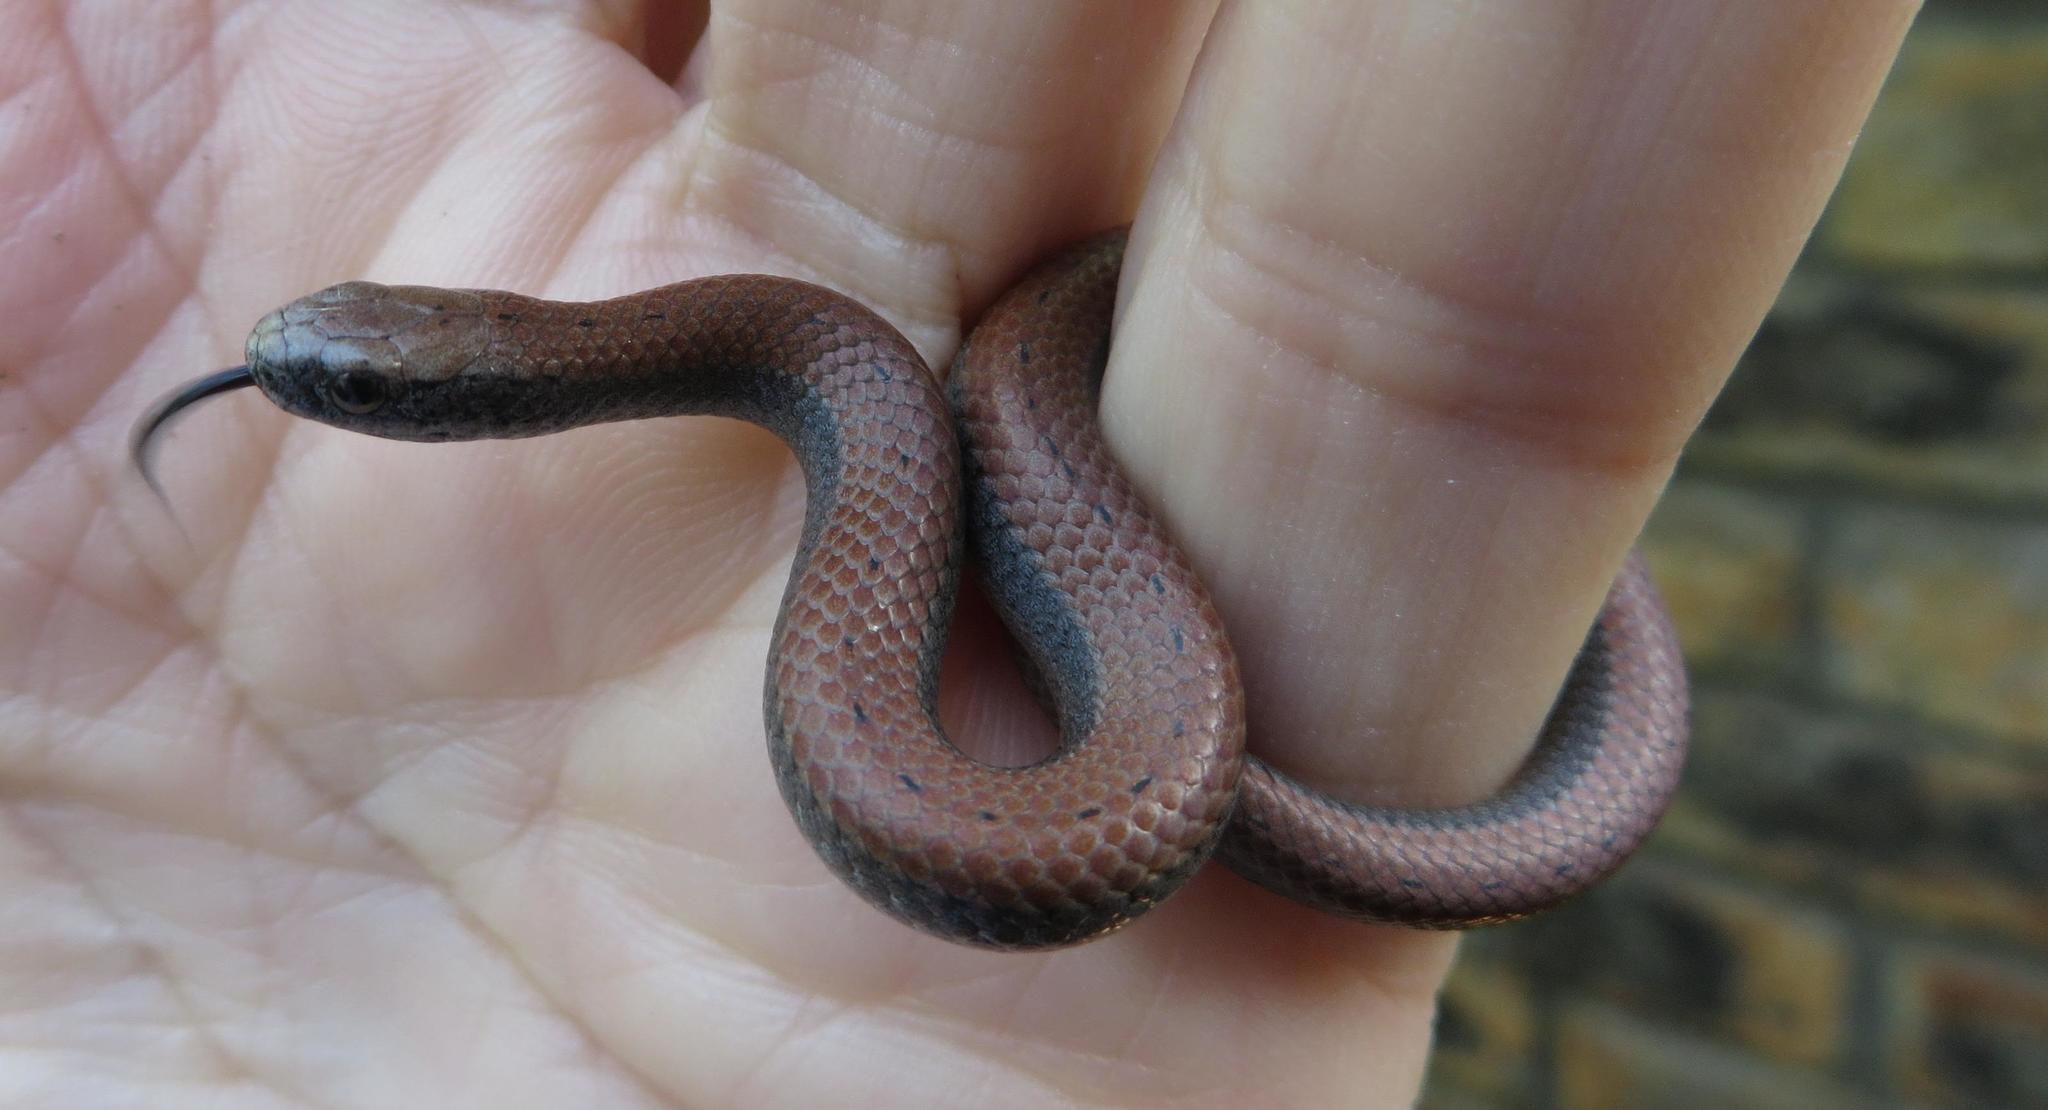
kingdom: Animalia
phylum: Chordata
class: Squamata
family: Pseudoxyrhophiidae
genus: Duberria
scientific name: Duberria lutrix
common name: Common slug eater
